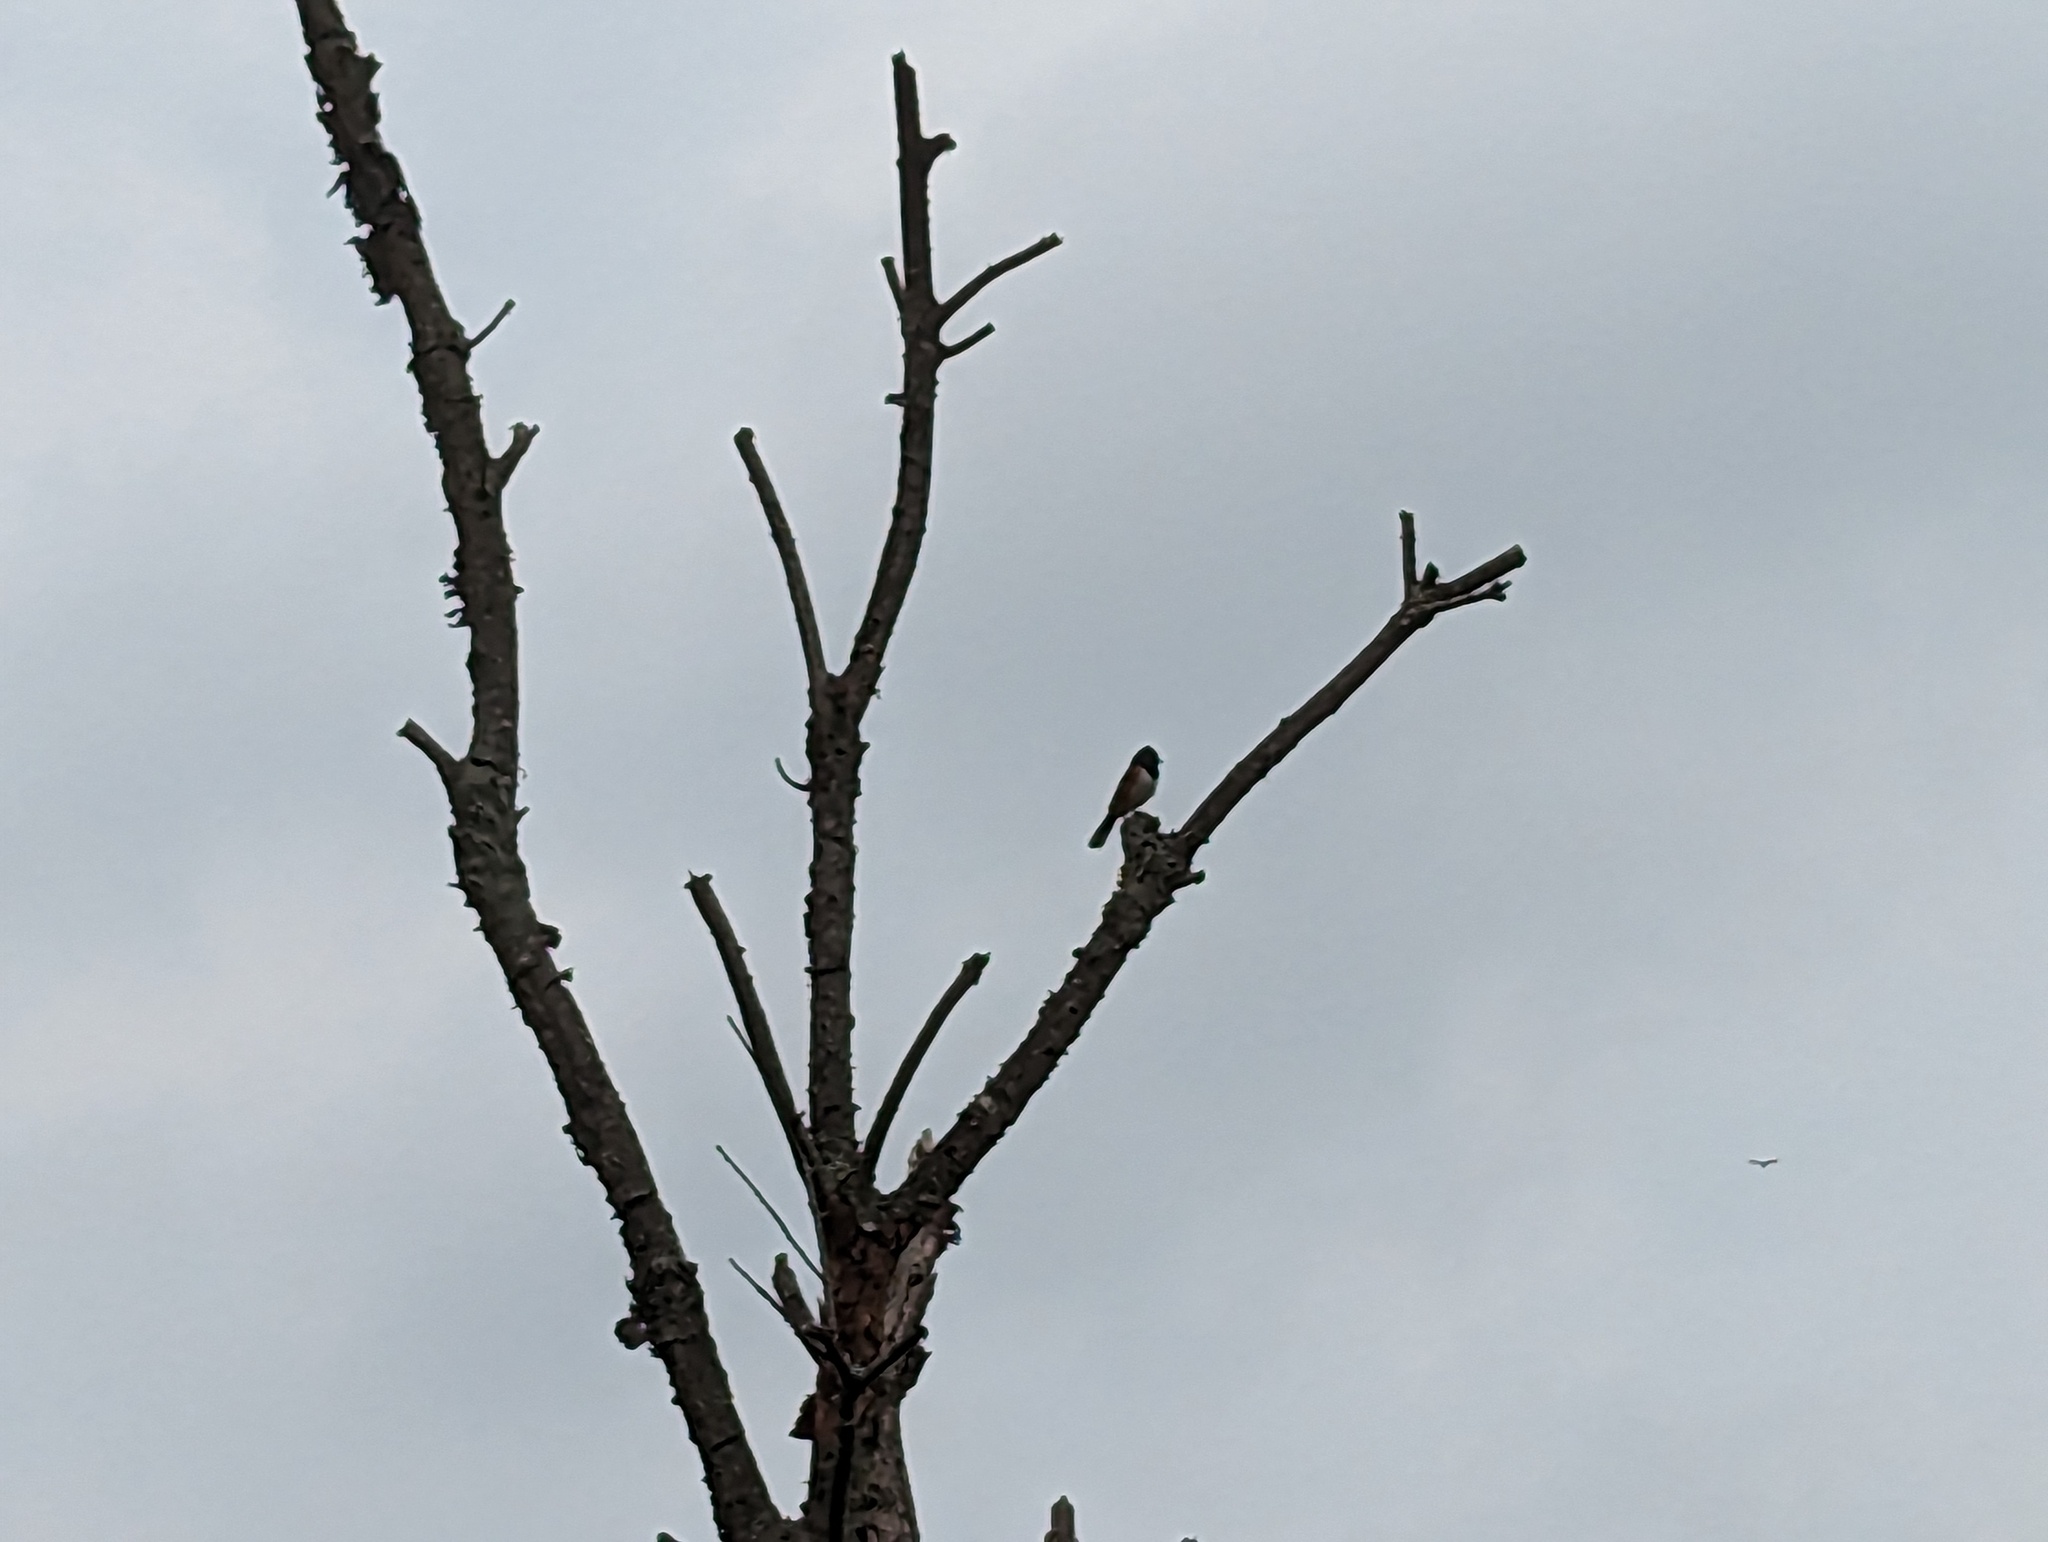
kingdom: Animalia
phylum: Chordata
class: Aves
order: Passeriformes
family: Passerellidae
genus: Pipilo
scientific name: Pipilo erythrophthalmus
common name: Eastern towhee
